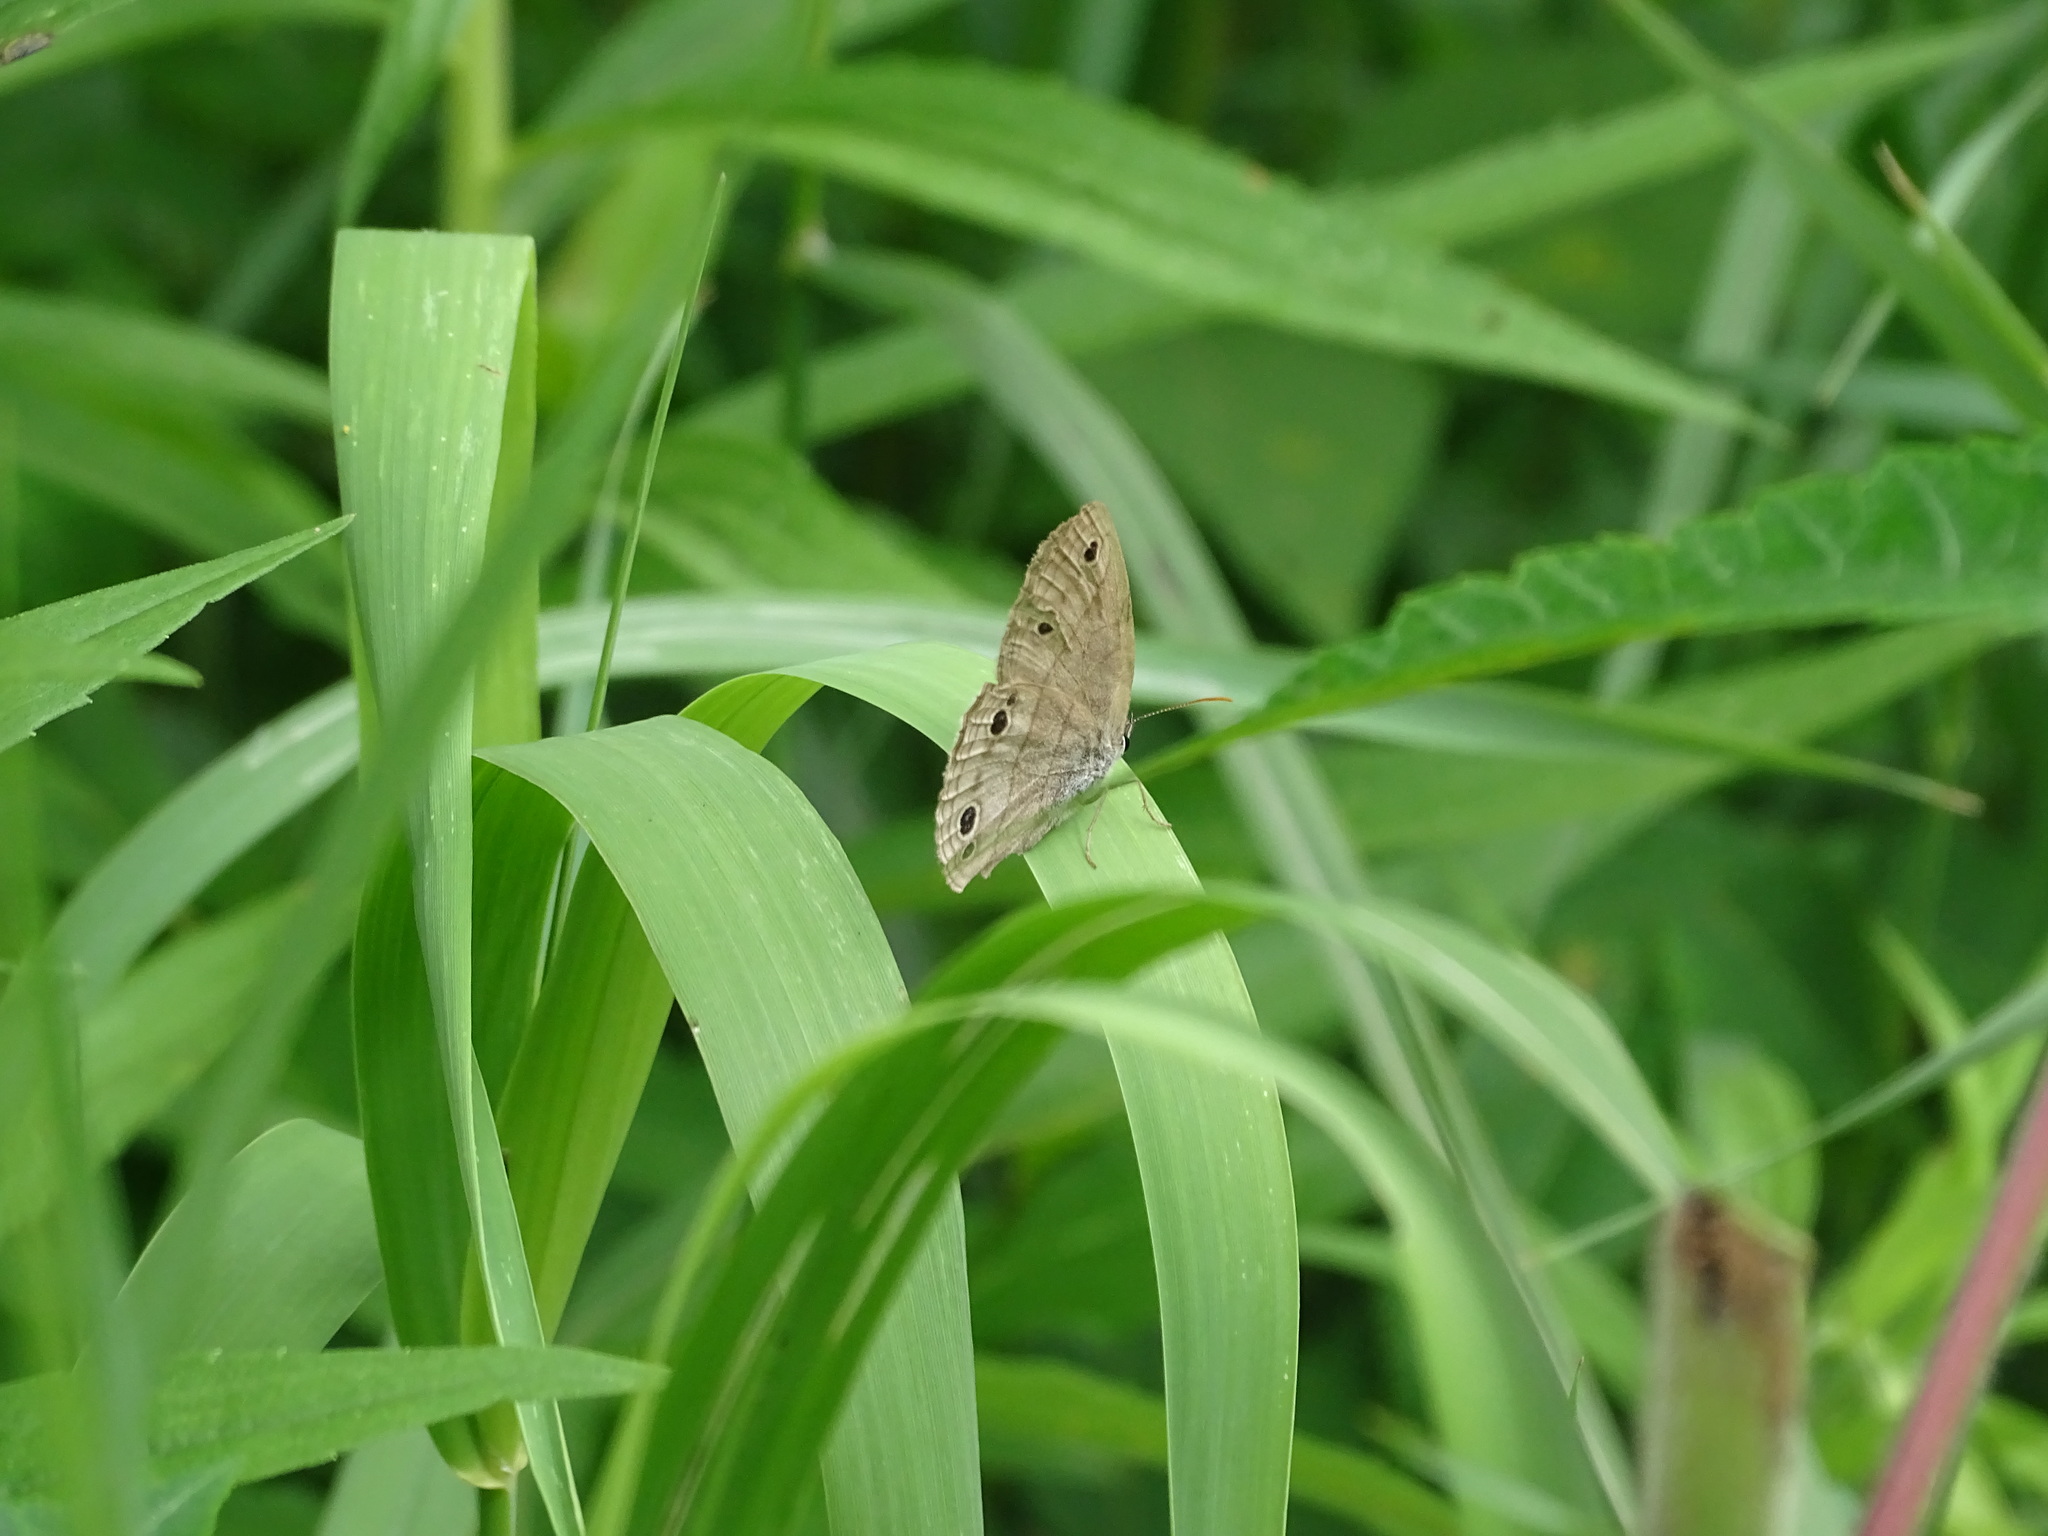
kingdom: Animalia
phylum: Arthropoda
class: Insecta
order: Lepidoptera
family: Nymphalidae
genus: Euptychia
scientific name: Euptychia cymela
